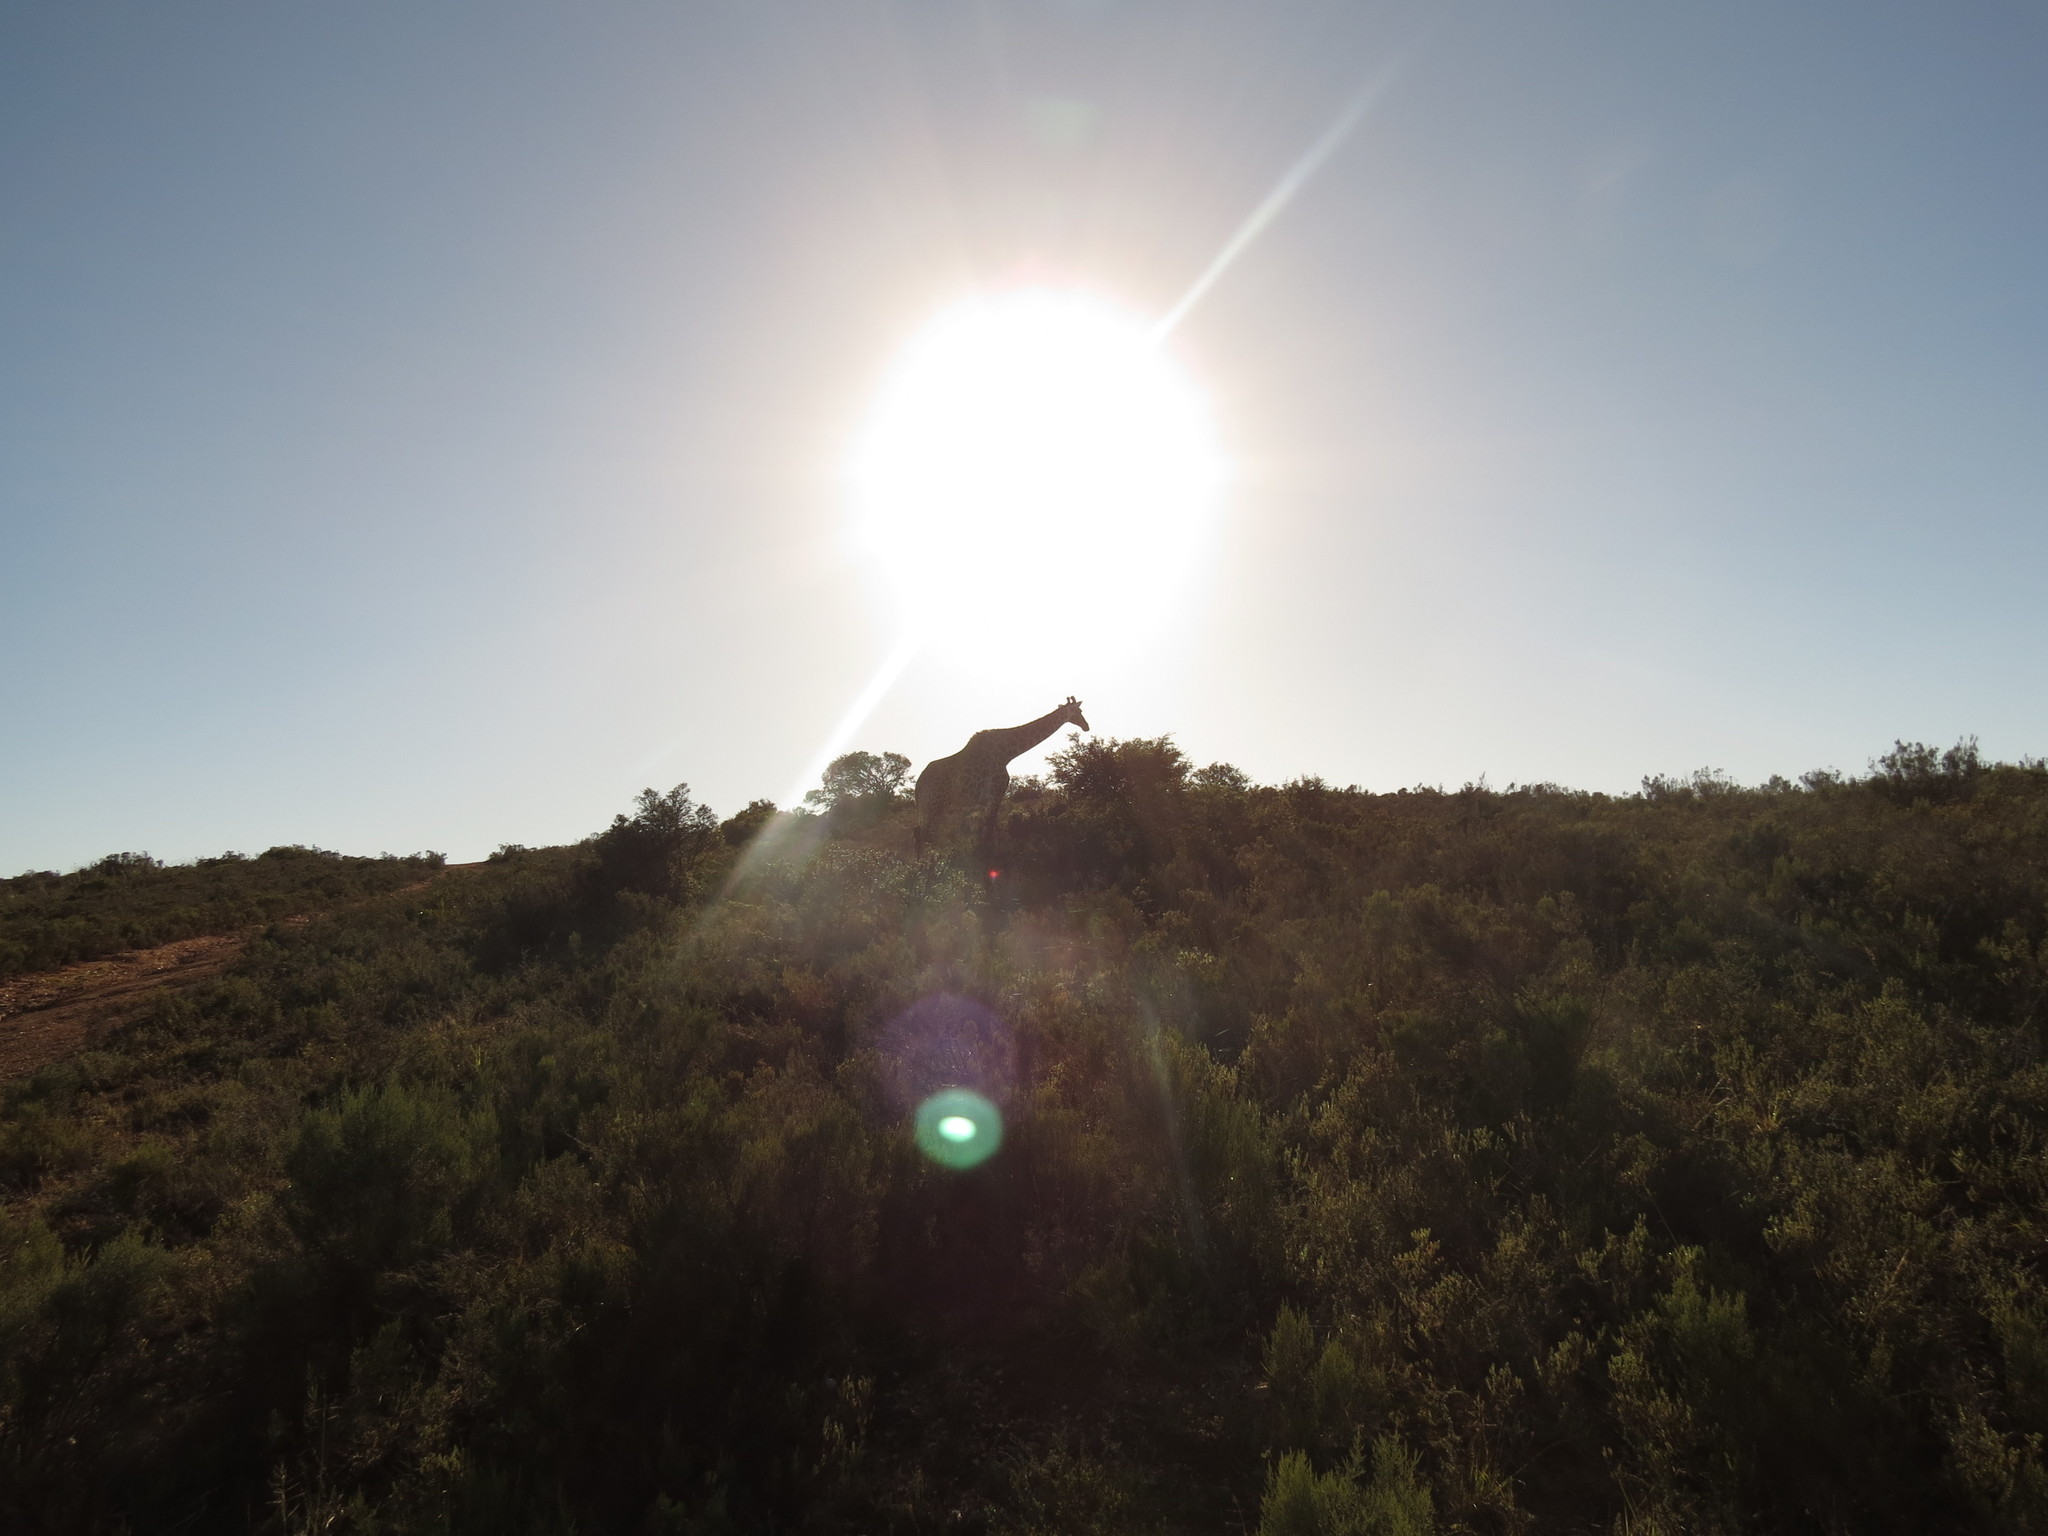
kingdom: Animalia
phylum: Chordata
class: Mammalia
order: Artiodactyla
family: Giraffidae
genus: Giraffa
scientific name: Giraffa giraffa
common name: Southern giraffe
